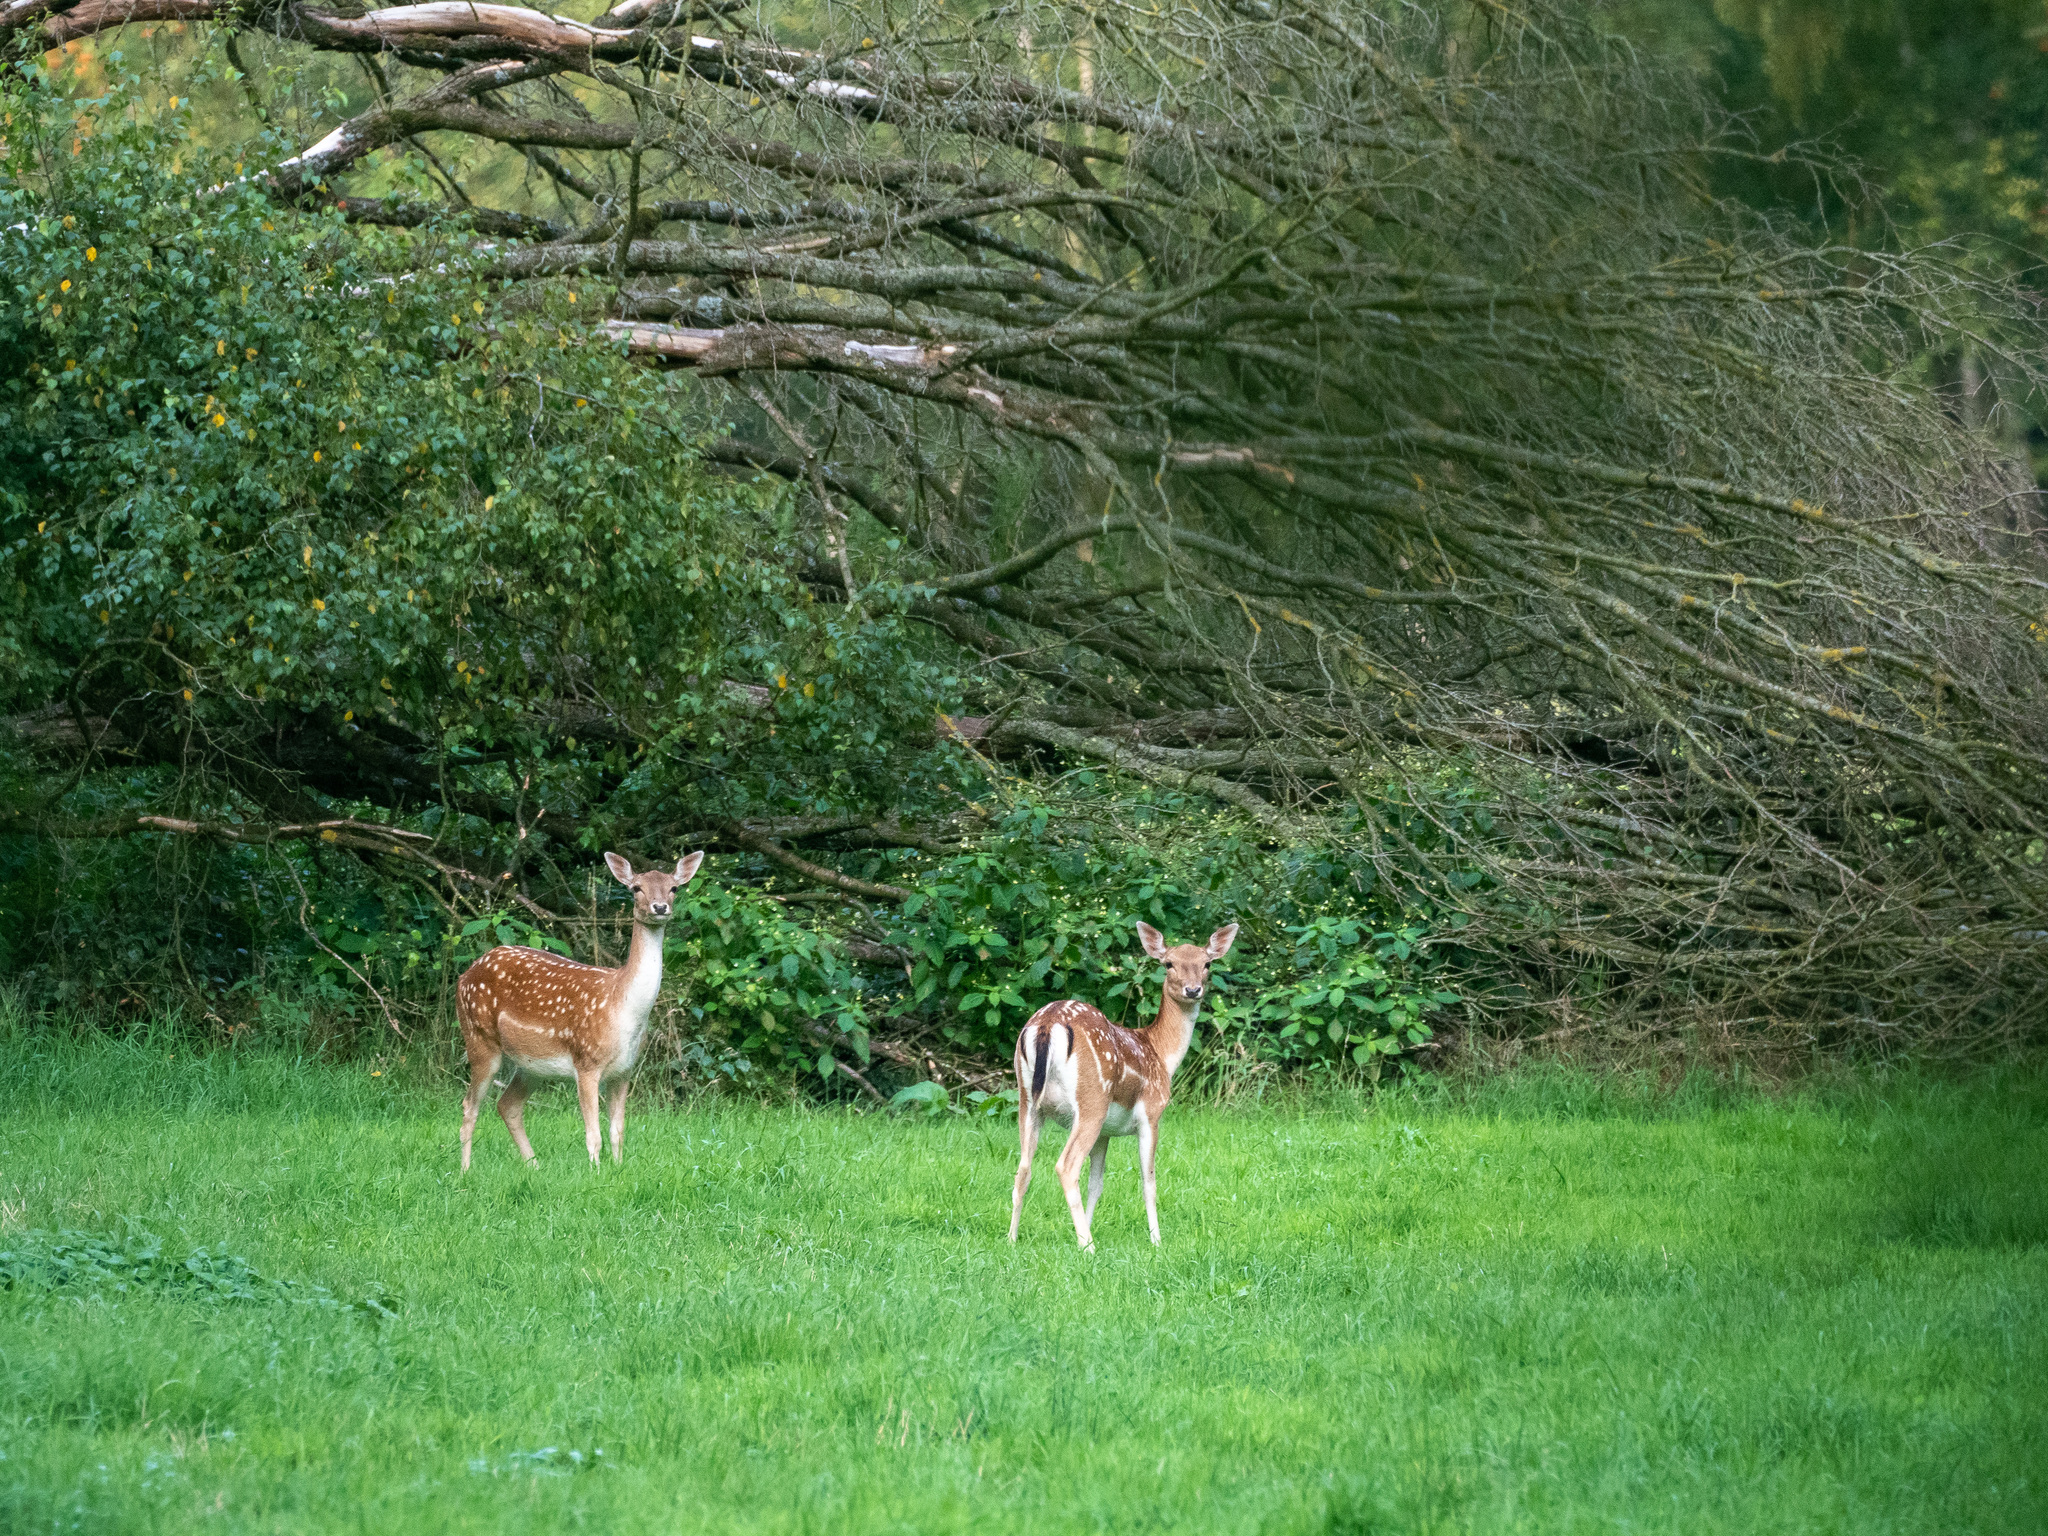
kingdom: Animalia
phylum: Chordata
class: Mammalia
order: Artiodactyla
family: Cervidae
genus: Dama
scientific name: Dama dama
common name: Fallow deer
